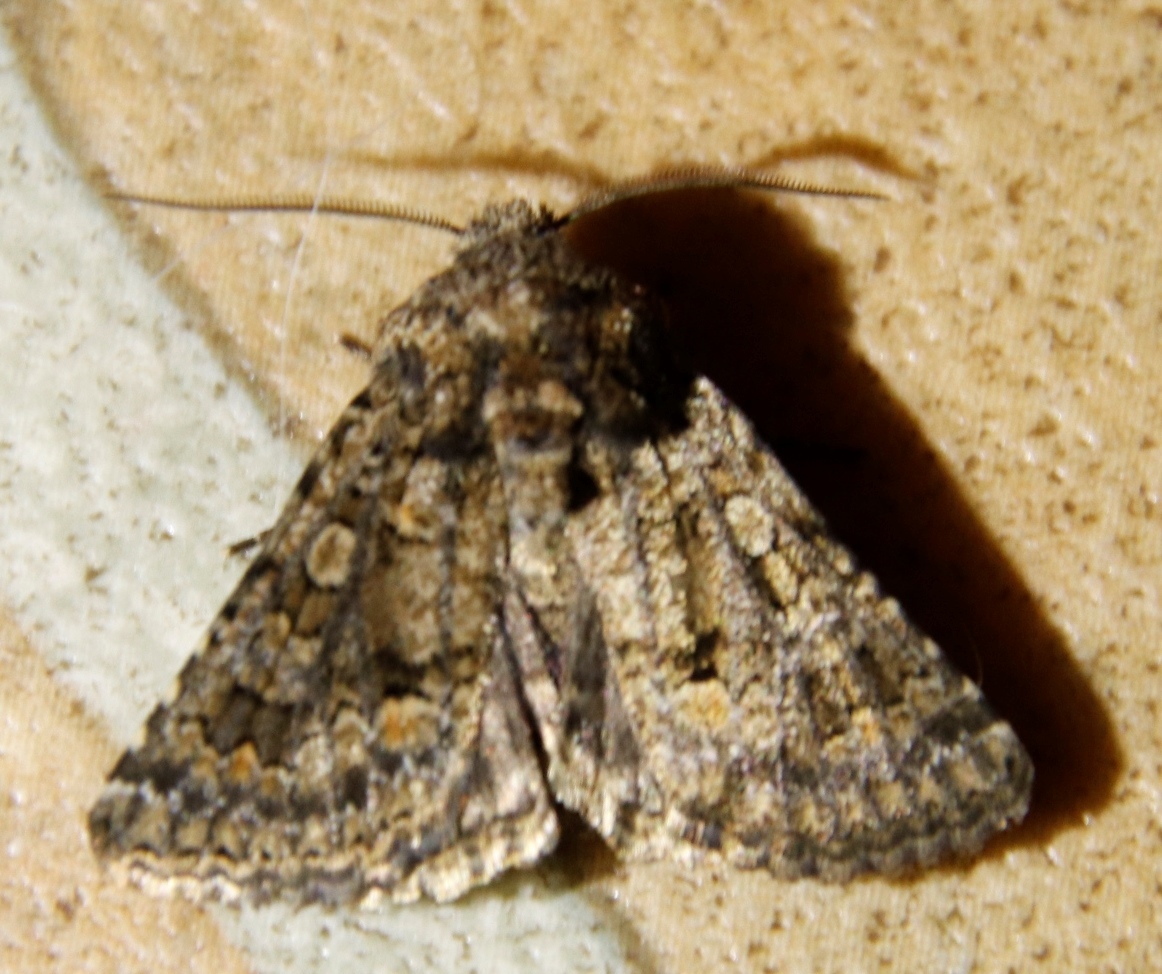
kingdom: Animalia
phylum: Arthropoda
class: Insecta
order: Lepidoptera
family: Noctuidae
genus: Spodoptera
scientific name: Spodoptera cilium
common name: Dark mottled willow
